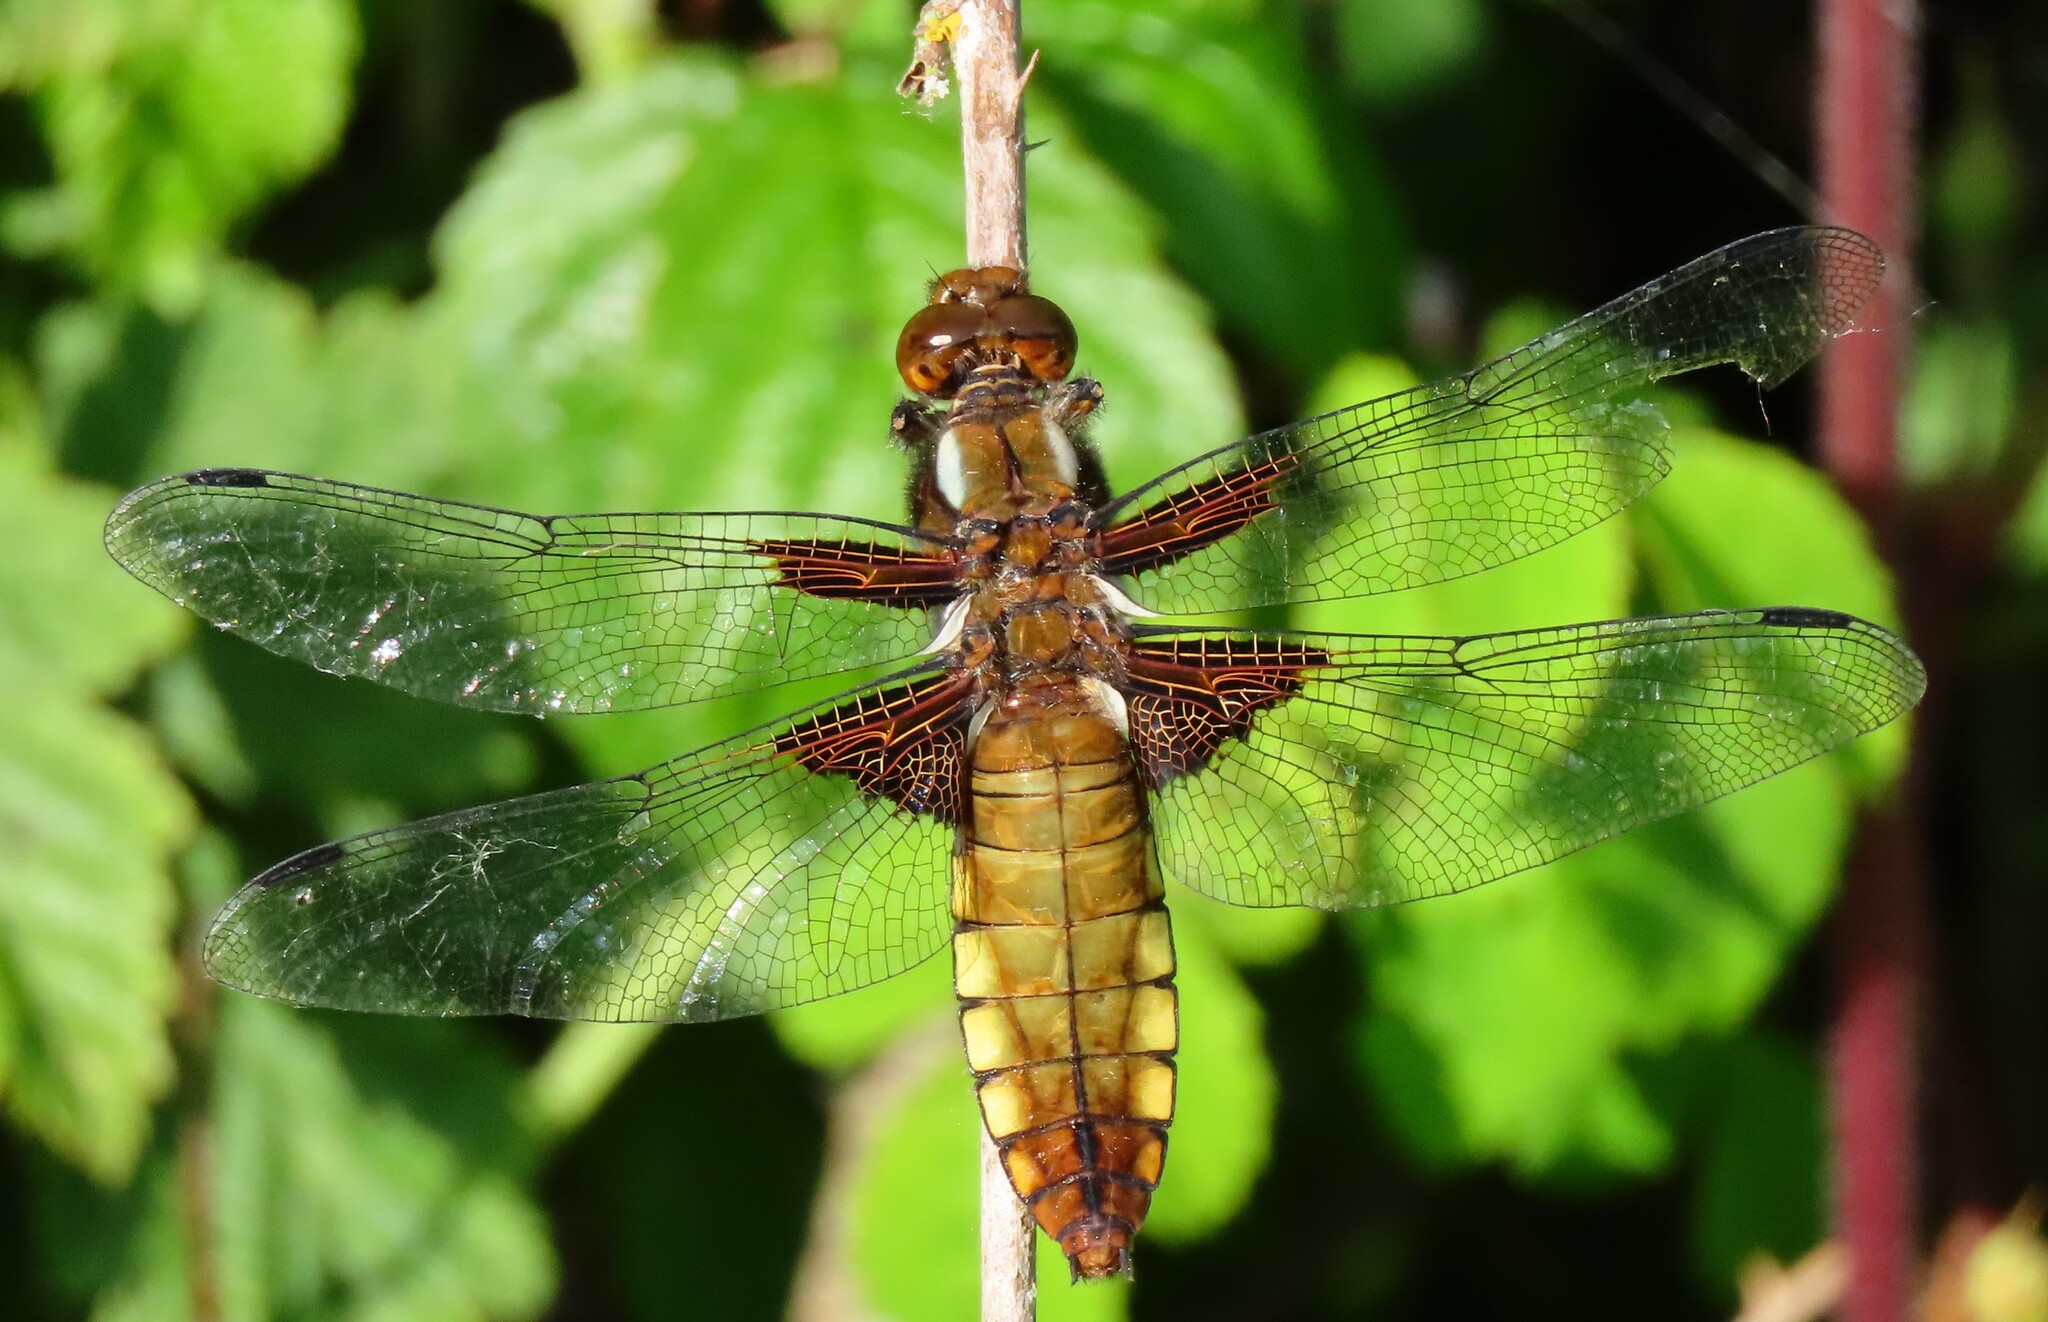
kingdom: Animalia
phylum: Arthropoda
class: Insecta
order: Odonata
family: Libellulidae
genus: Libellula
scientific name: Libellula depressa
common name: Broad-bodied chaser
